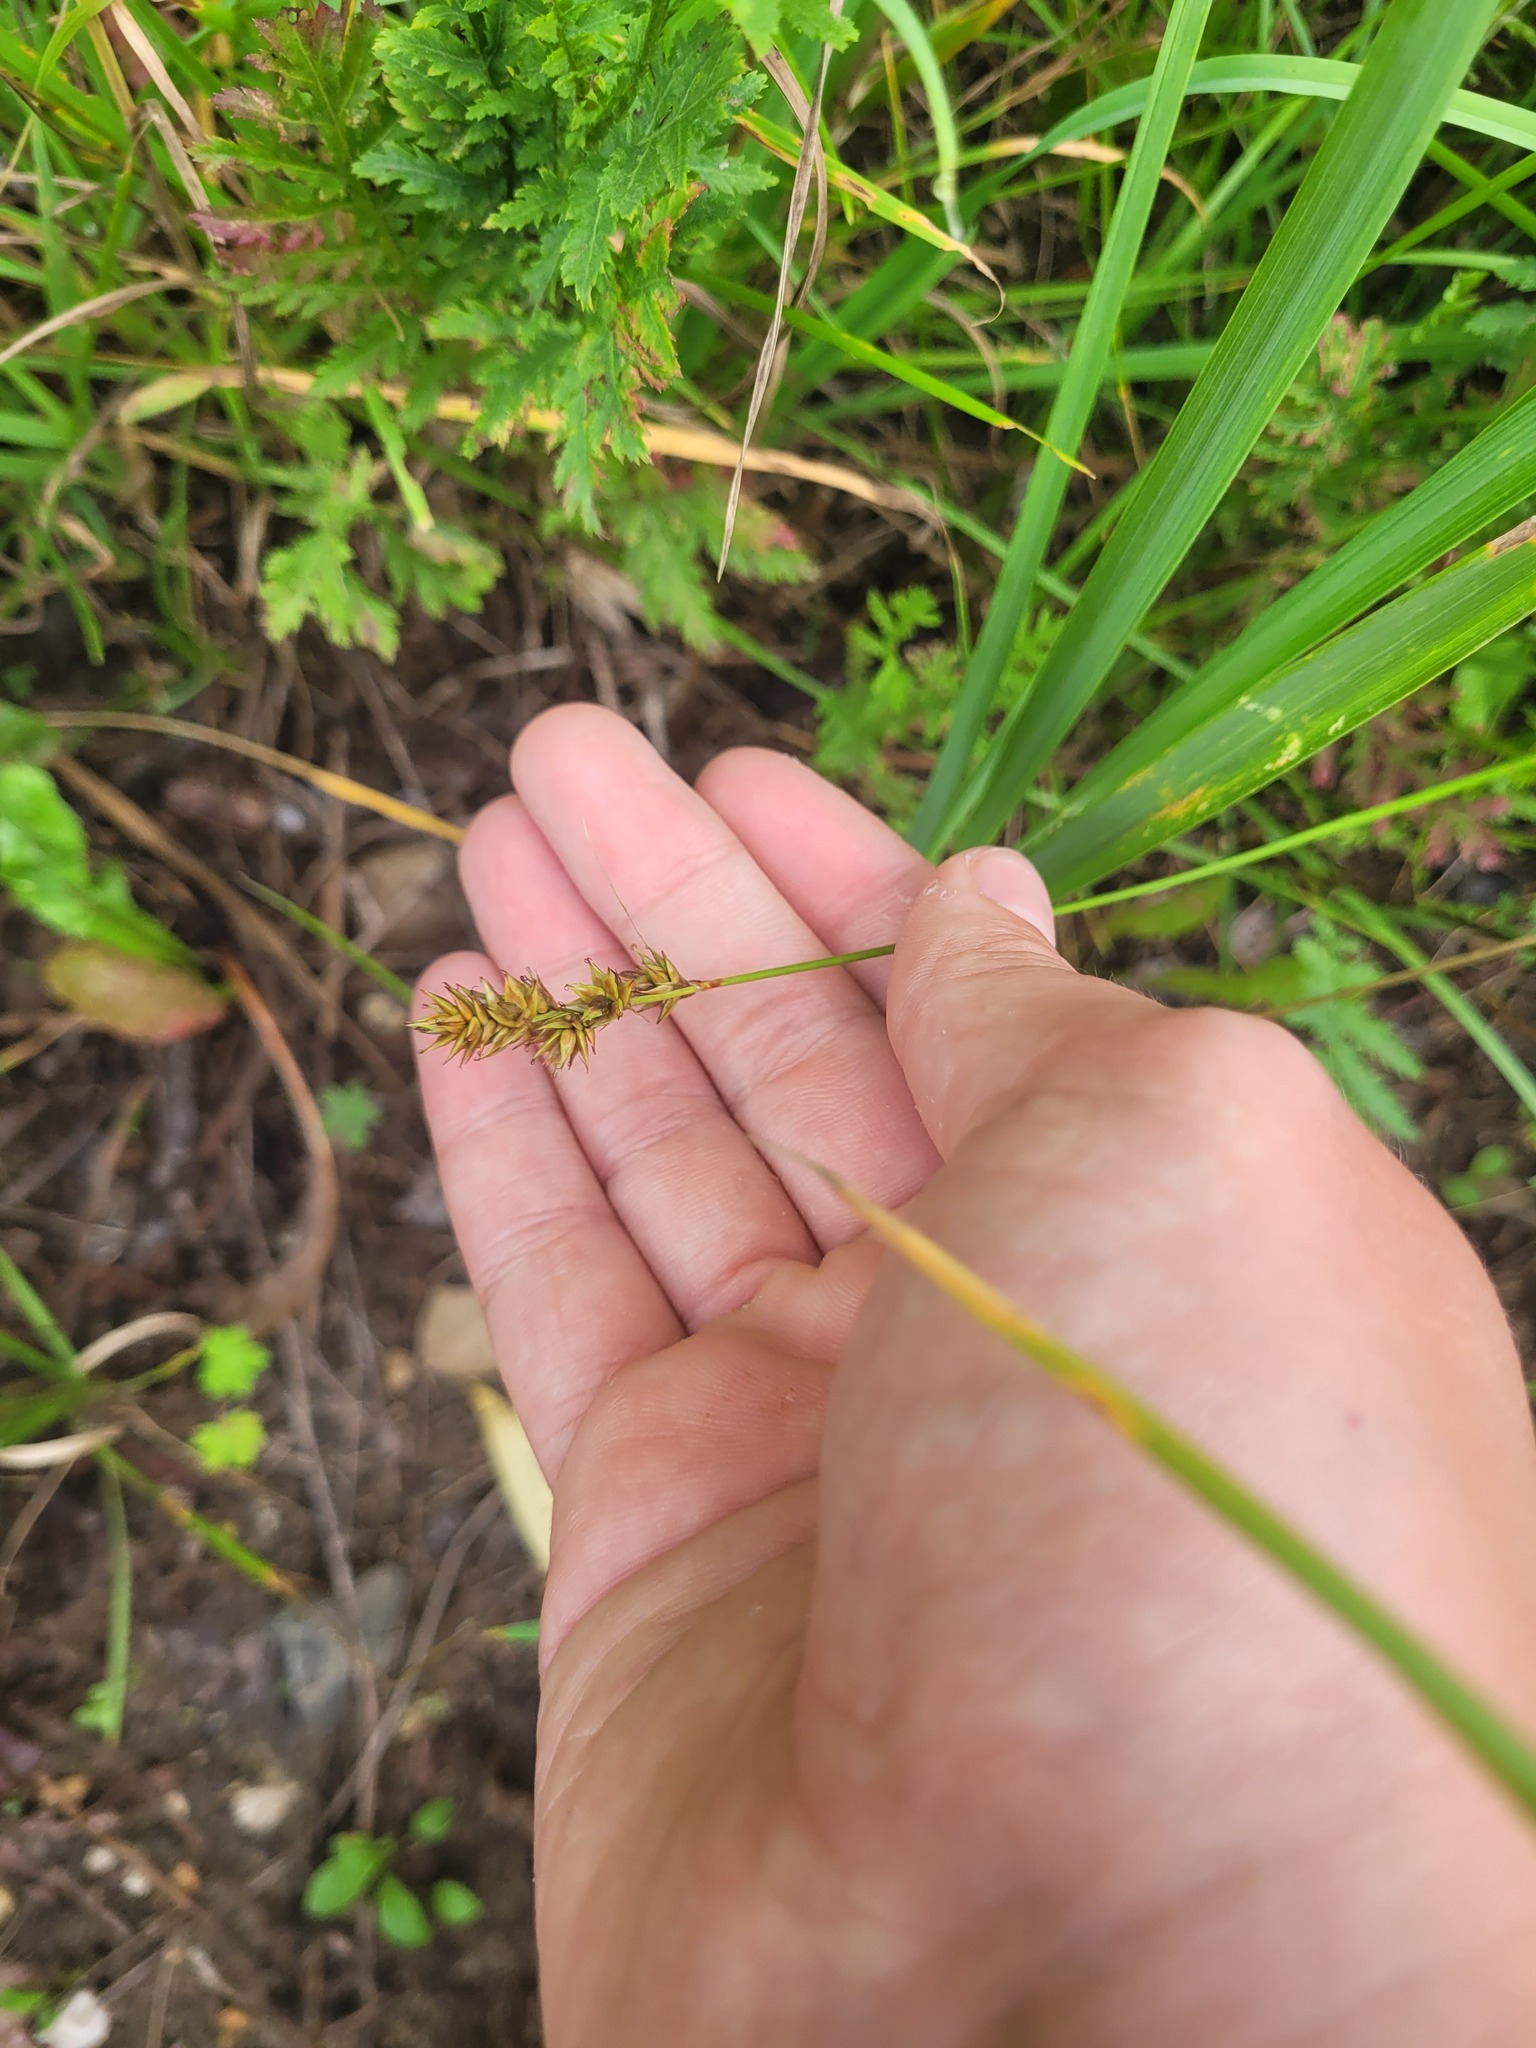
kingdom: Plantae
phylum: Tracheophyta
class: Liliopsida
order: Poales
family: Cyperaceae
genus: Carex
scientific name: Carex spicata
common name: Spiked sedge
